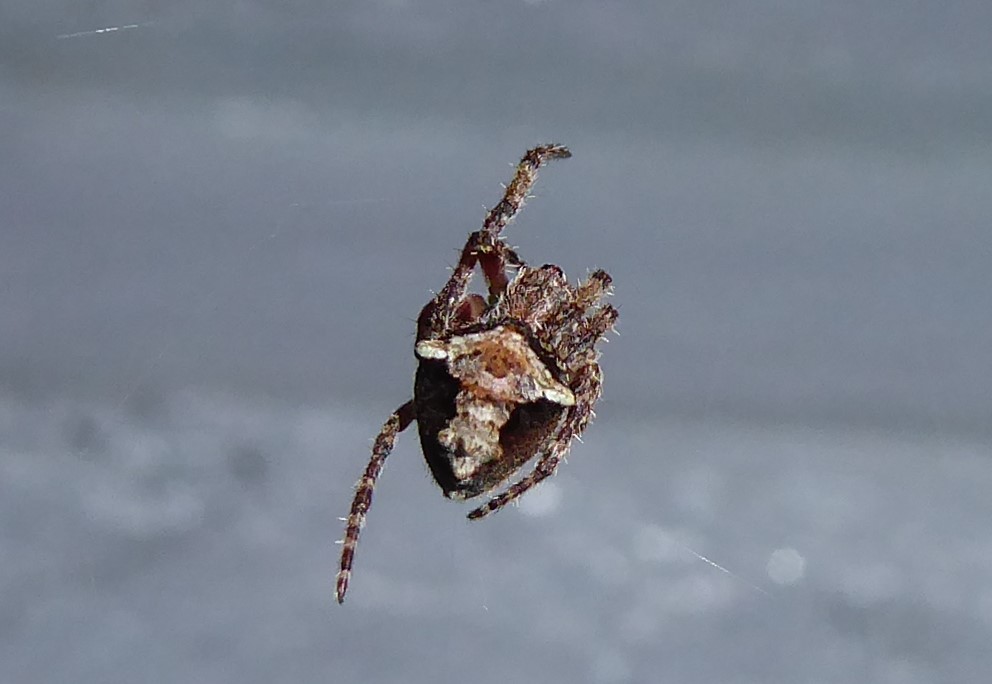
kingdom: Animalia
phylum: Arthropoda
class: Arachnida
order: Araneae
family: Araneidae
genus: Eriophora
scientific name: Eriophora pustulosa
